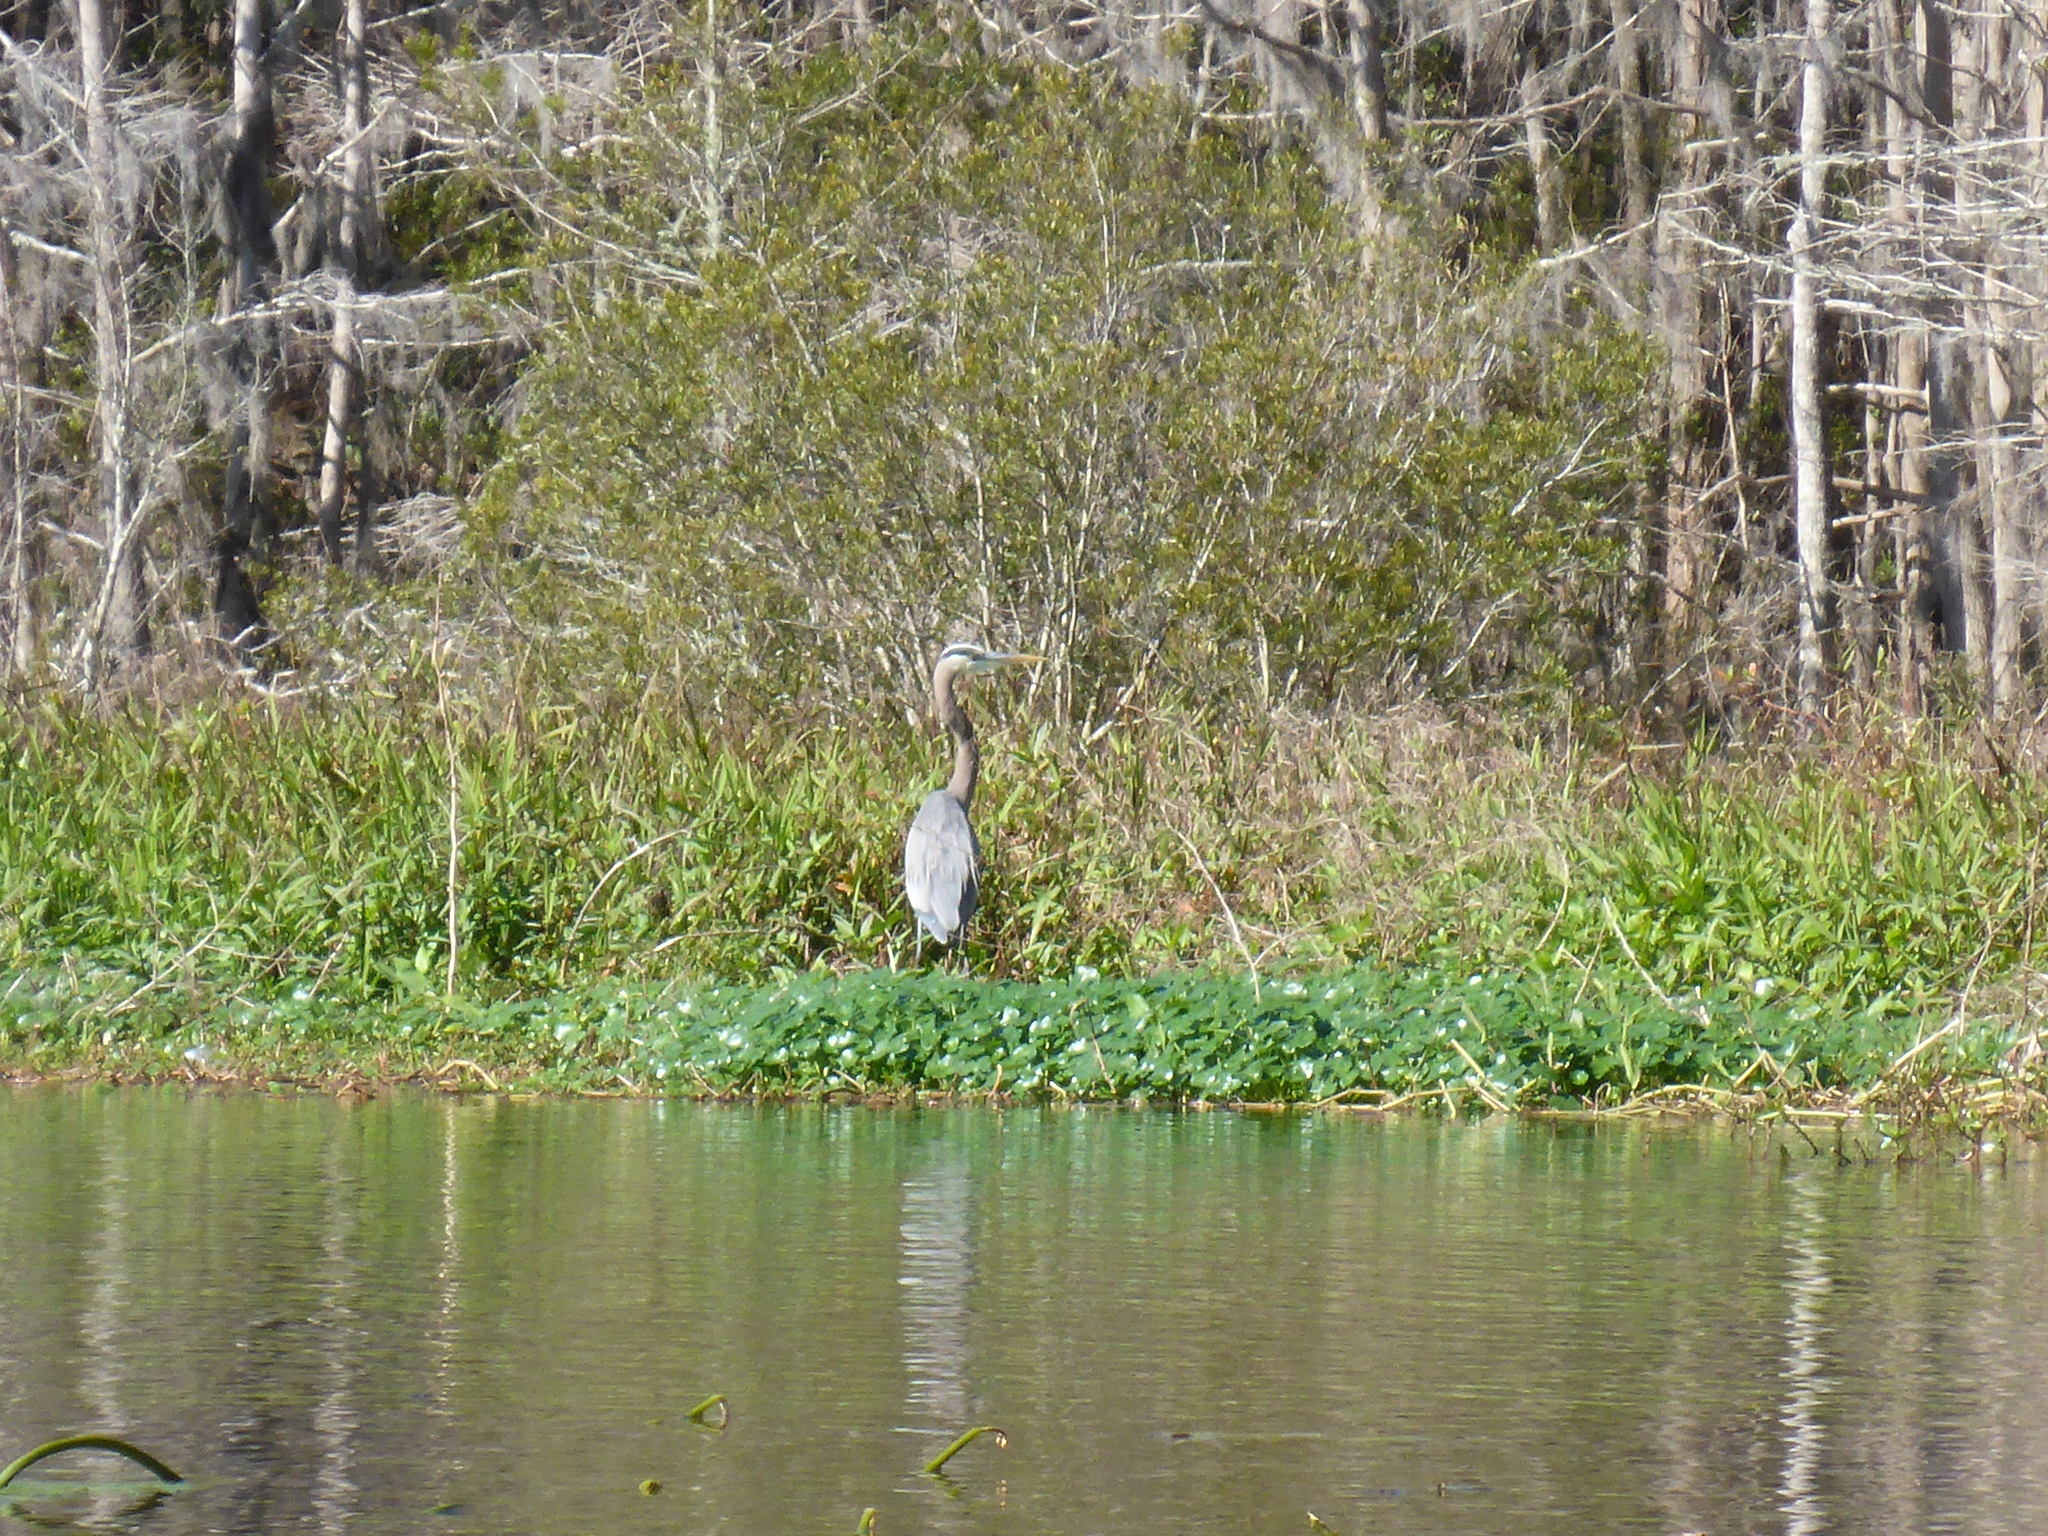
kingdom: Animalia
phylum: Chordata
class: Aves
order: Pelecaniformes
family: Ardeidae
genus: Ardea
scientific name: Ardea herodias
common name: Great blue heron
